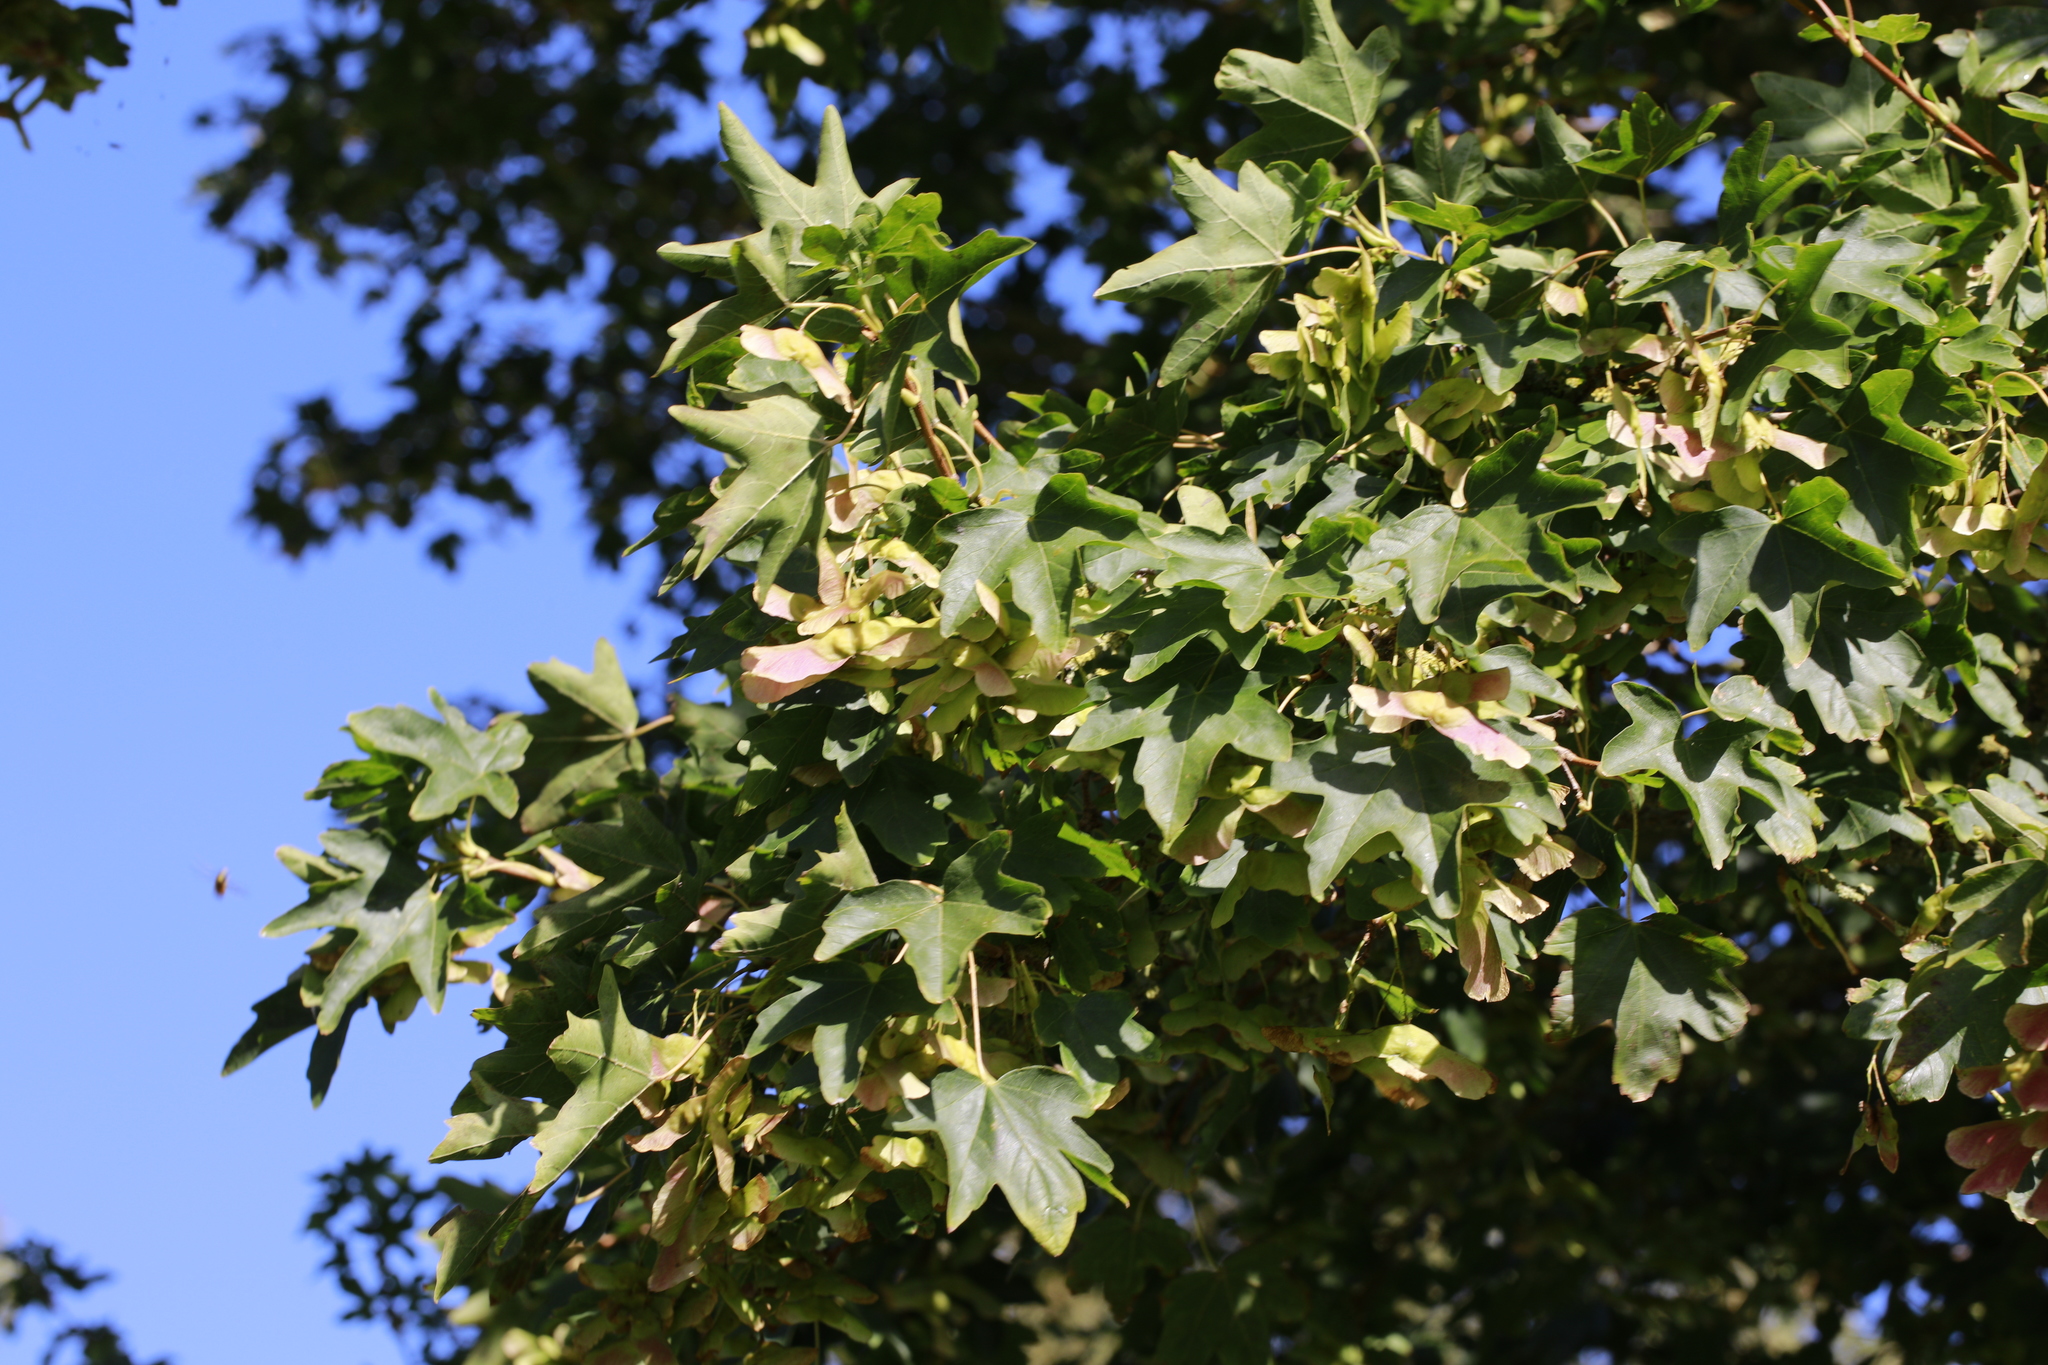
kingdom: Plantae
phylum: Tracheophyta
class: Magnoliopsida
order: Sapindales
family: Sapindaceae
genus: Acer
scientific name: Acer campestre
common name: Field maple
